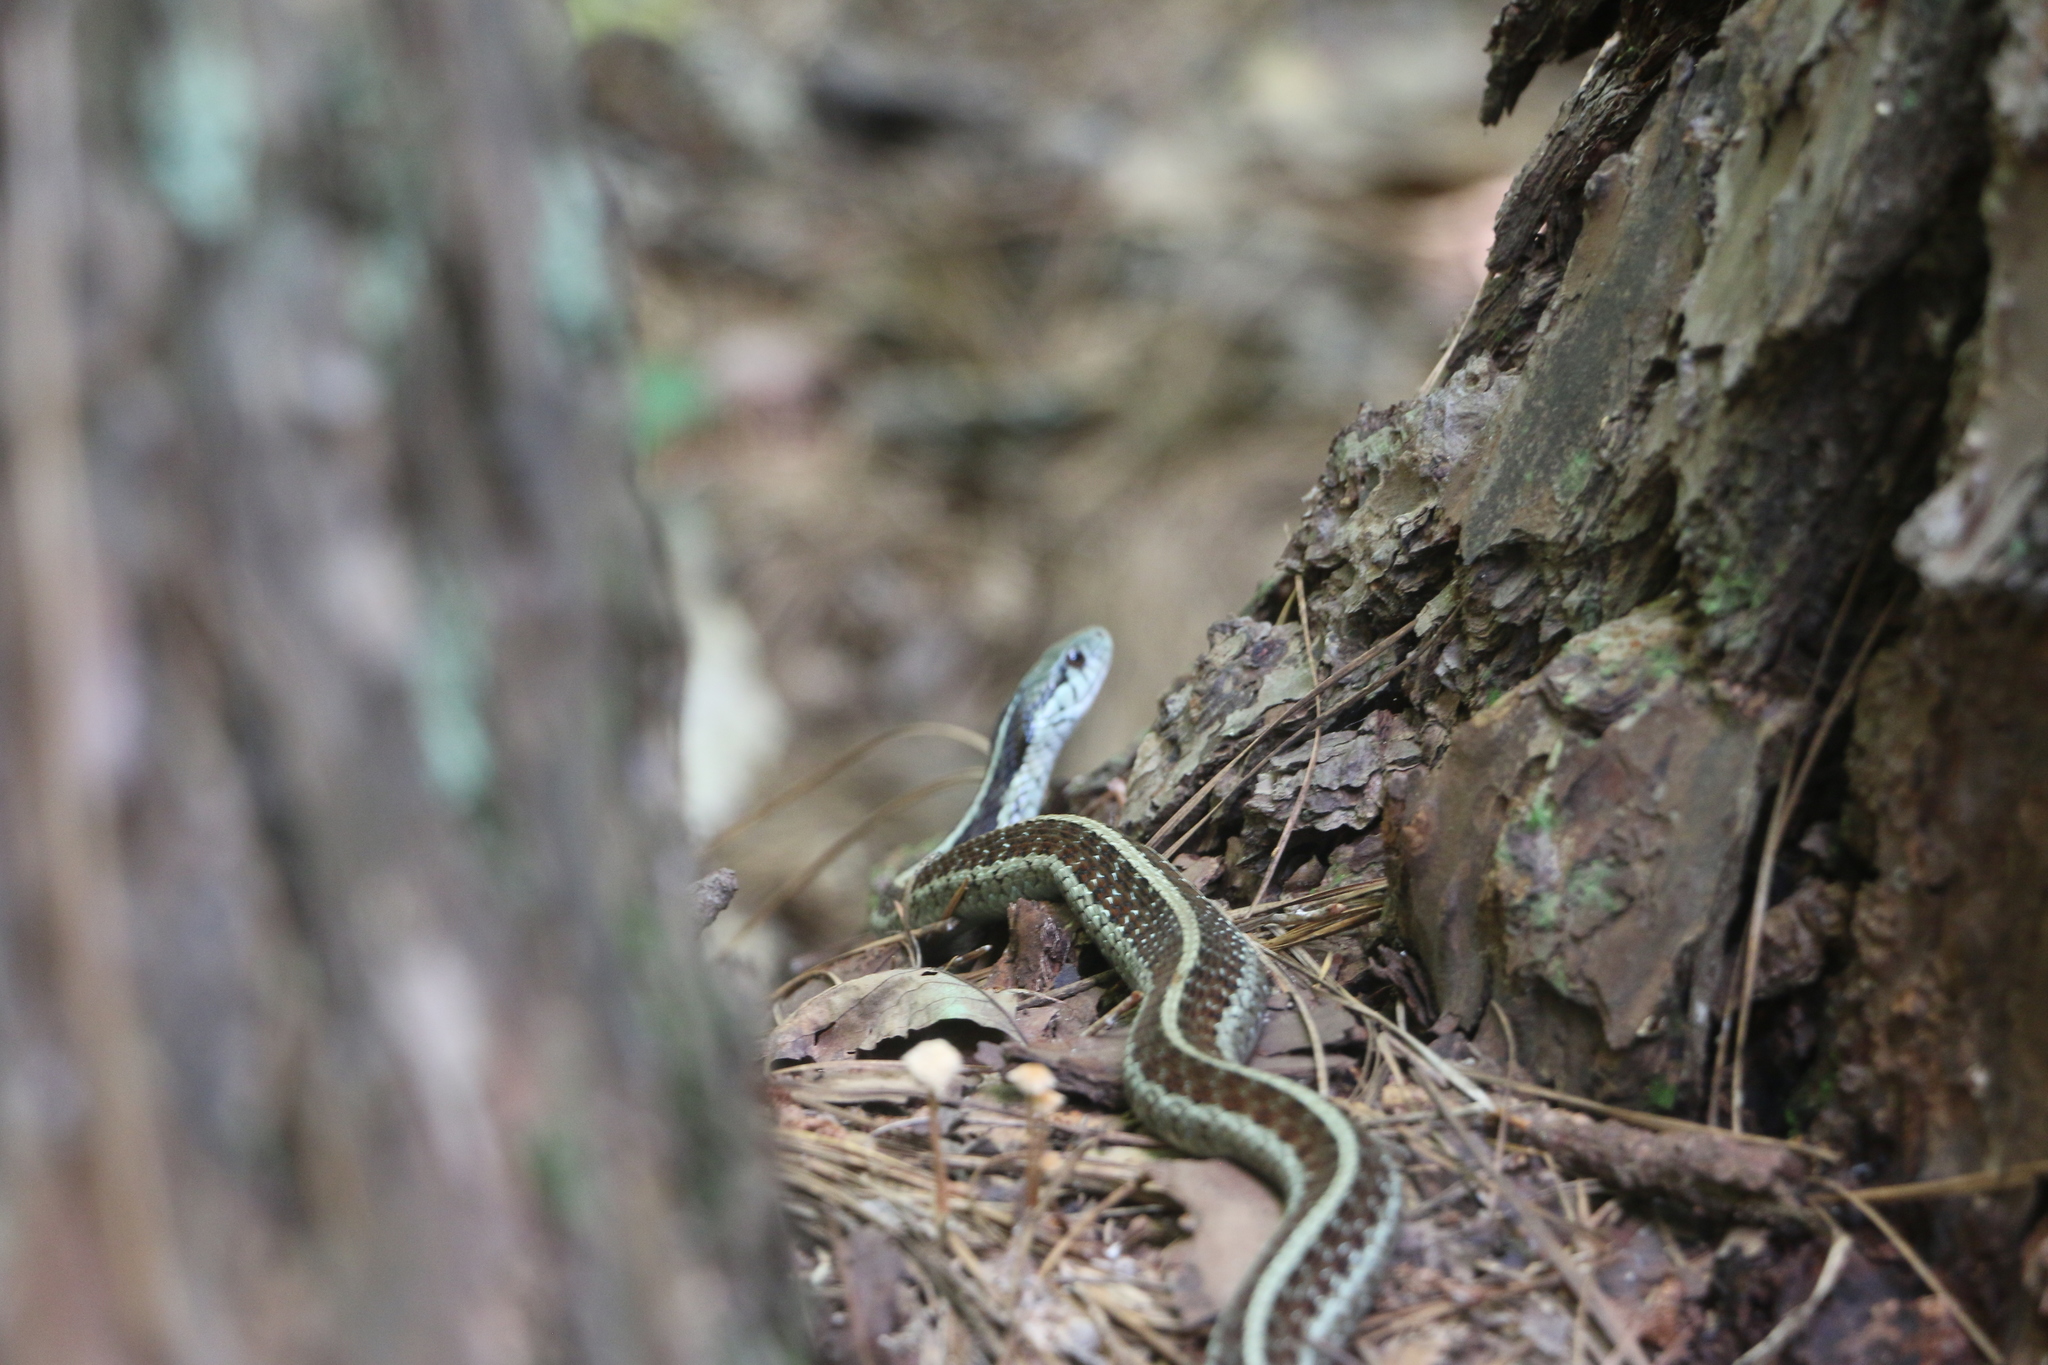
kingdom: Animalia
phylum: Chordata
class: Squamata
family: Colubridae
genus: Thamnophis
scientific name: Thamnophis sirtalis
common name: Common garter snake
